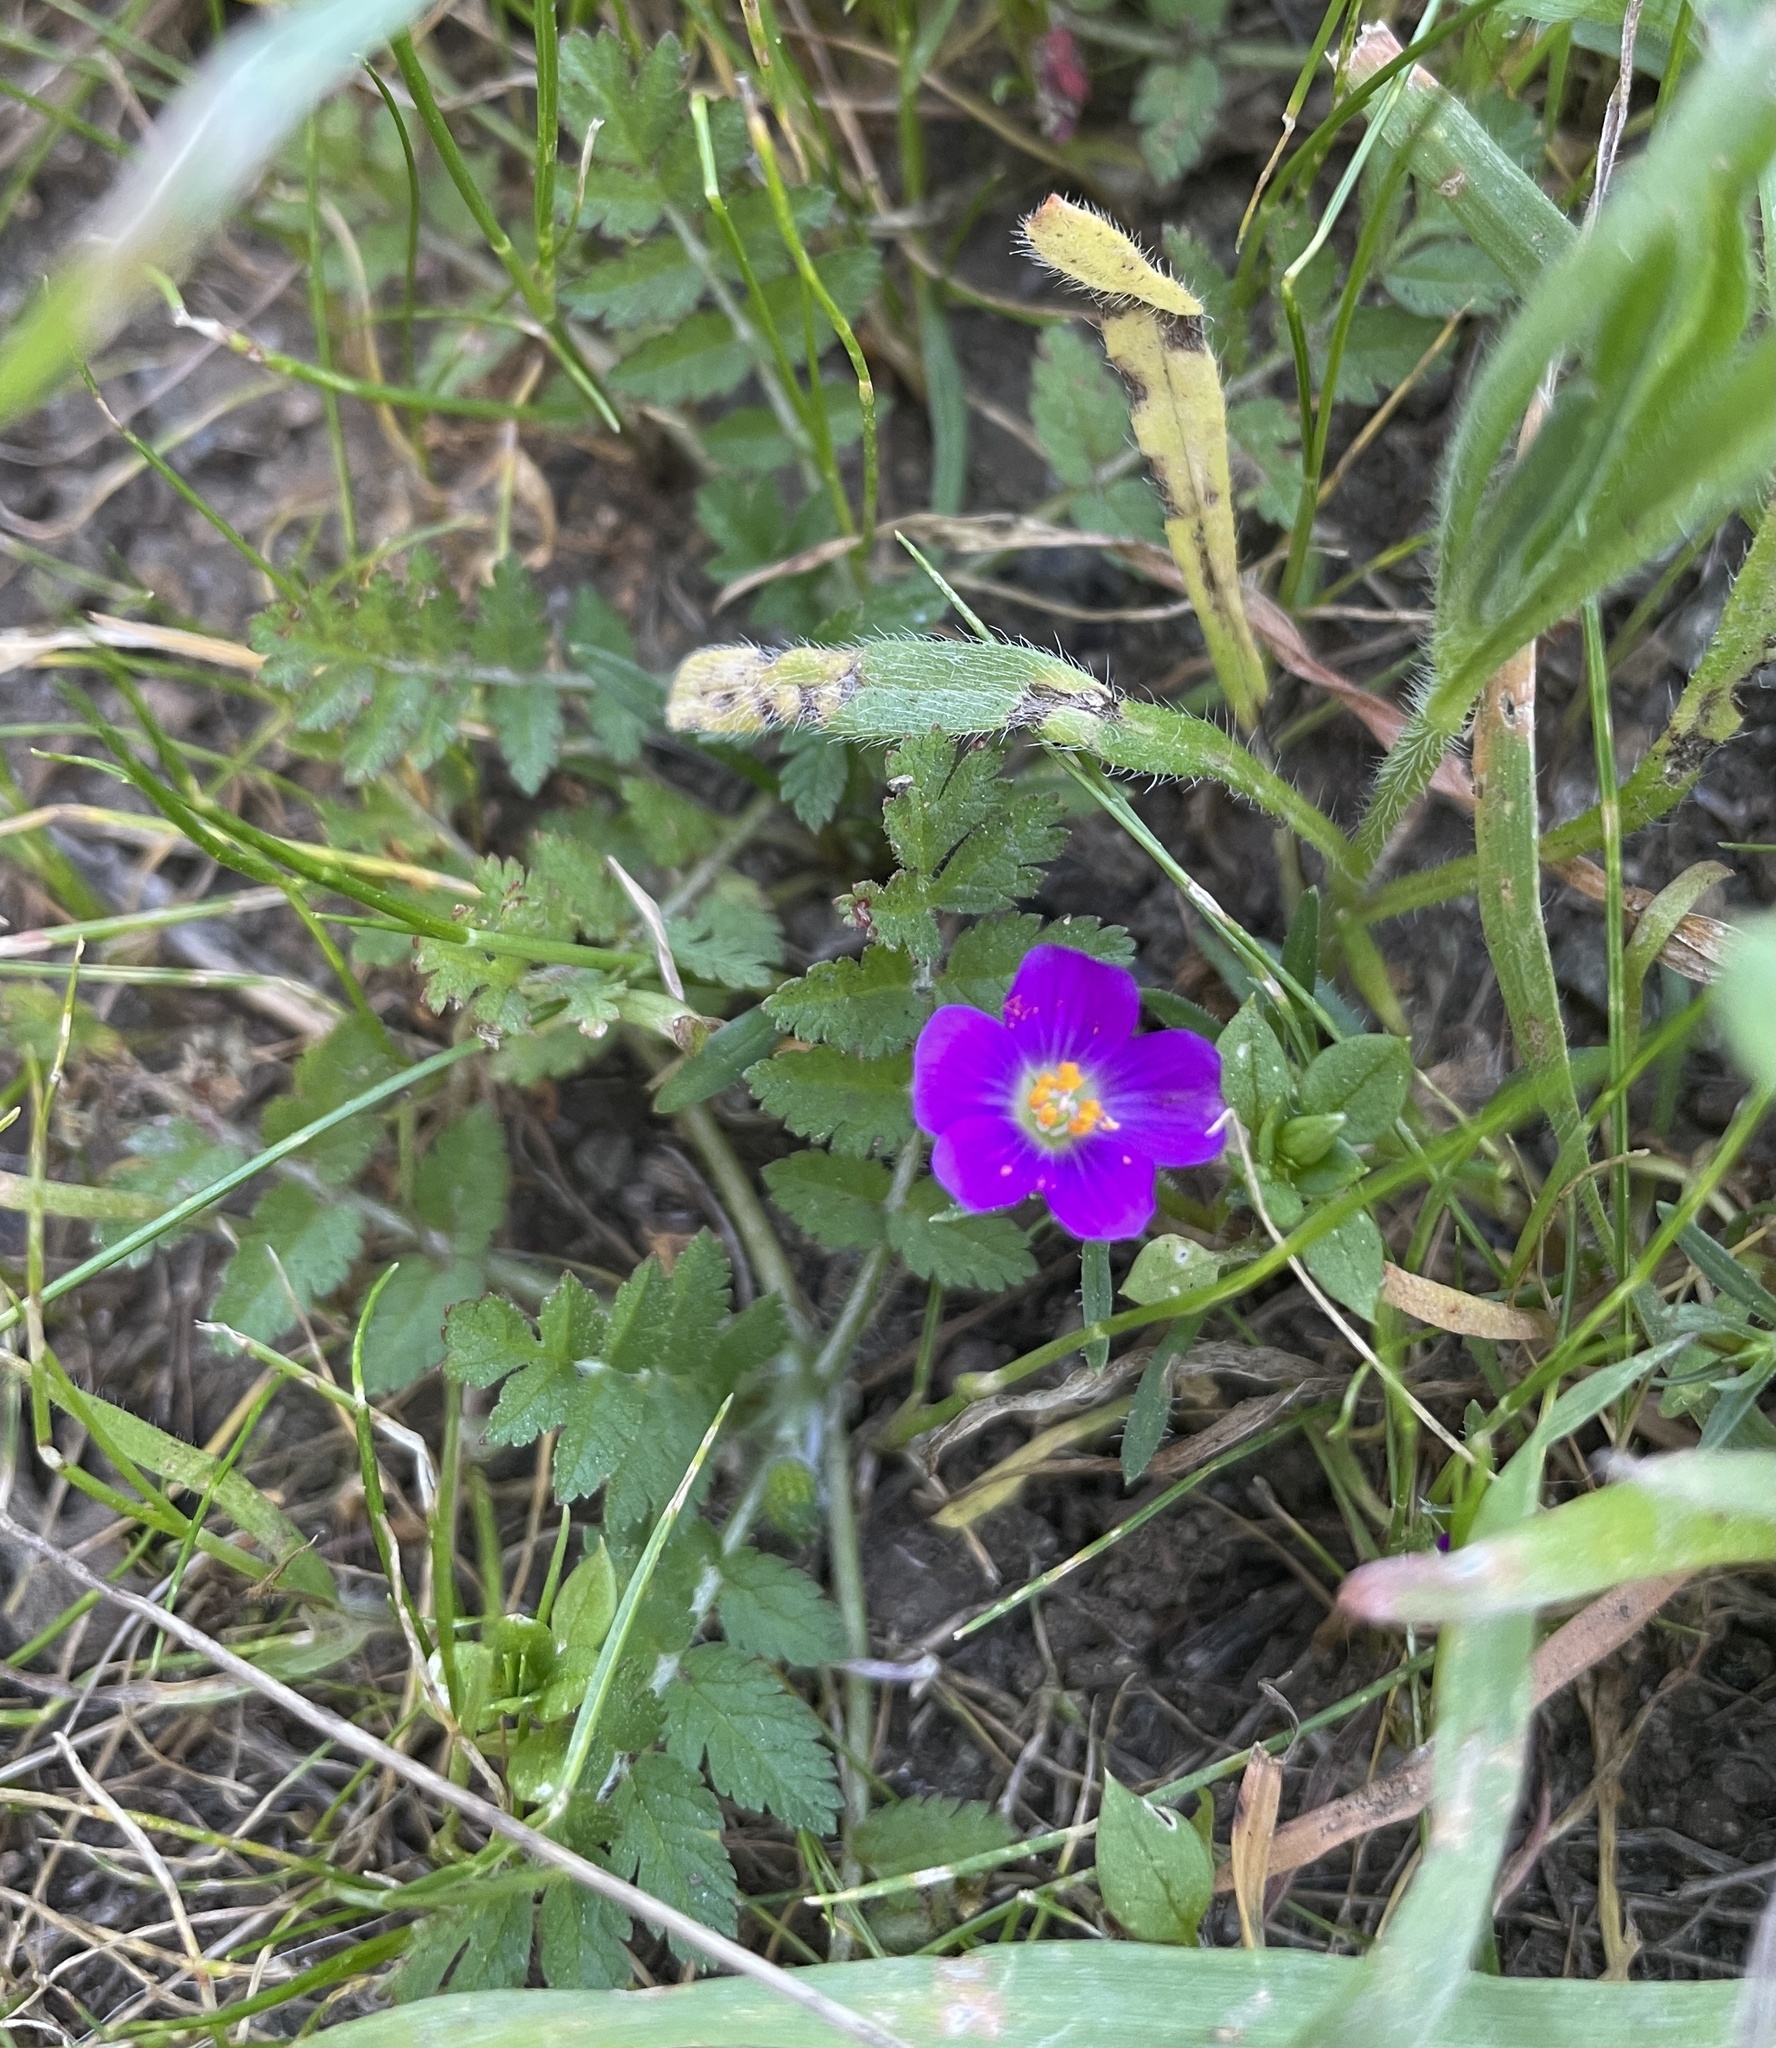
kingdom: Plantae
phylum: Tracheophyta
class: Magnoliopsida
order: Caryophyllales
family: Montiaceae
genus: Calandrinia
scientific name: Calandrinia menziesii
